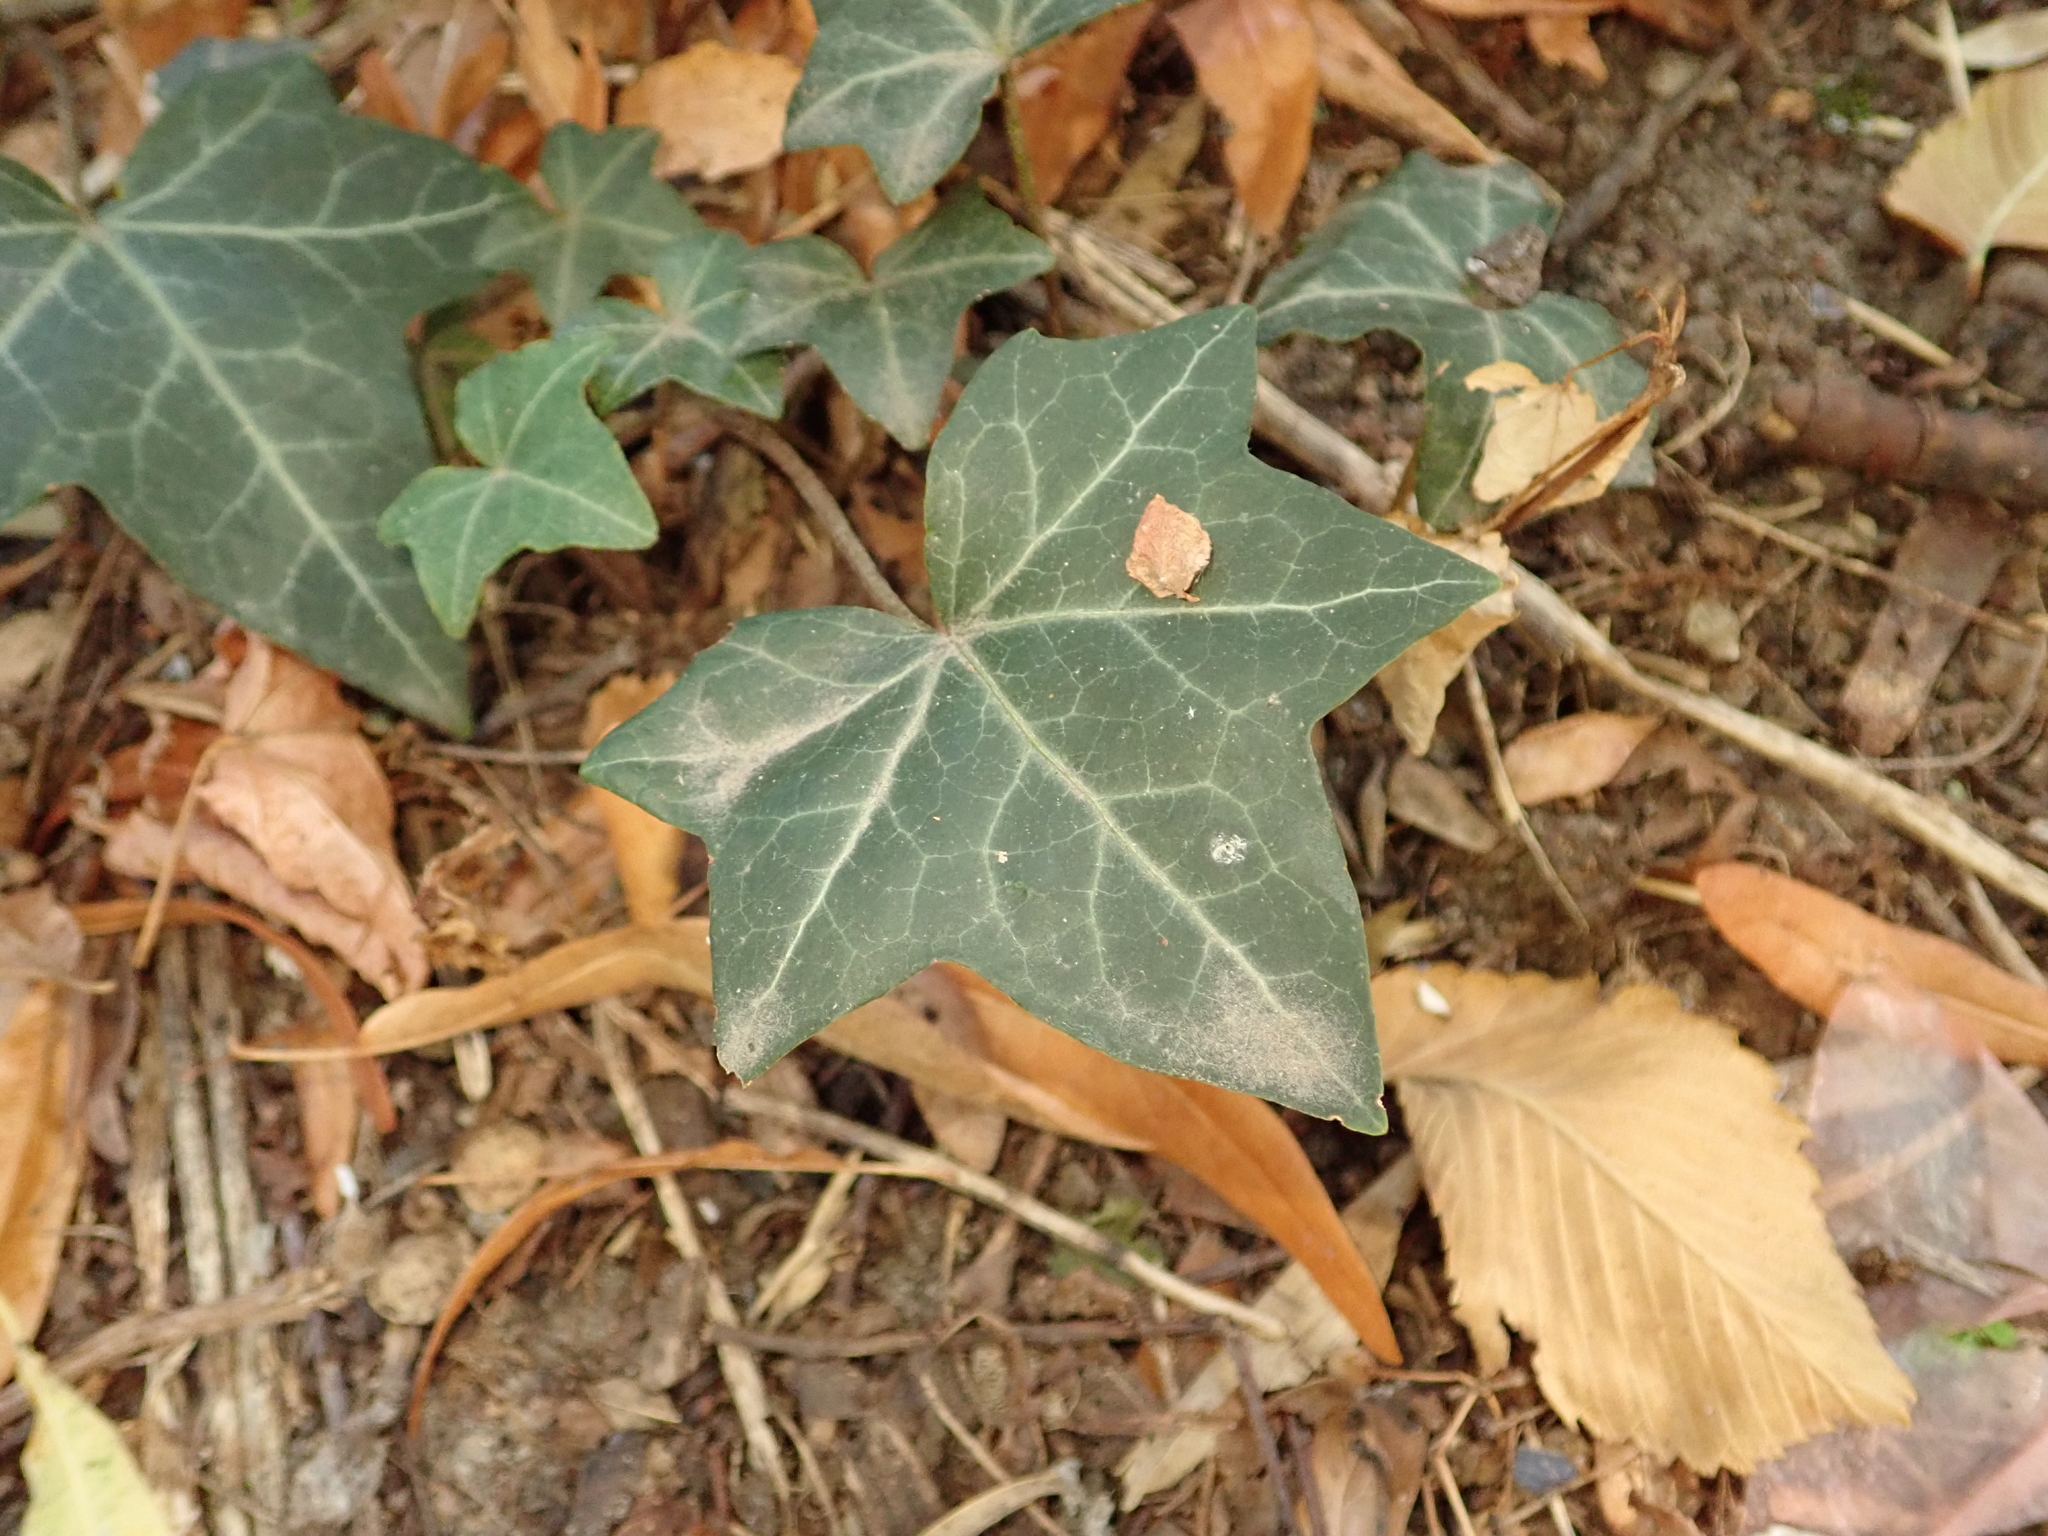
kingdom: Plantae
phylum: Tracheophyta
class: Magnoliopsida
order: Apiales
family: Araliaceae
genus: Hedera
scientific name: Hedera helix
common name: Ivy
